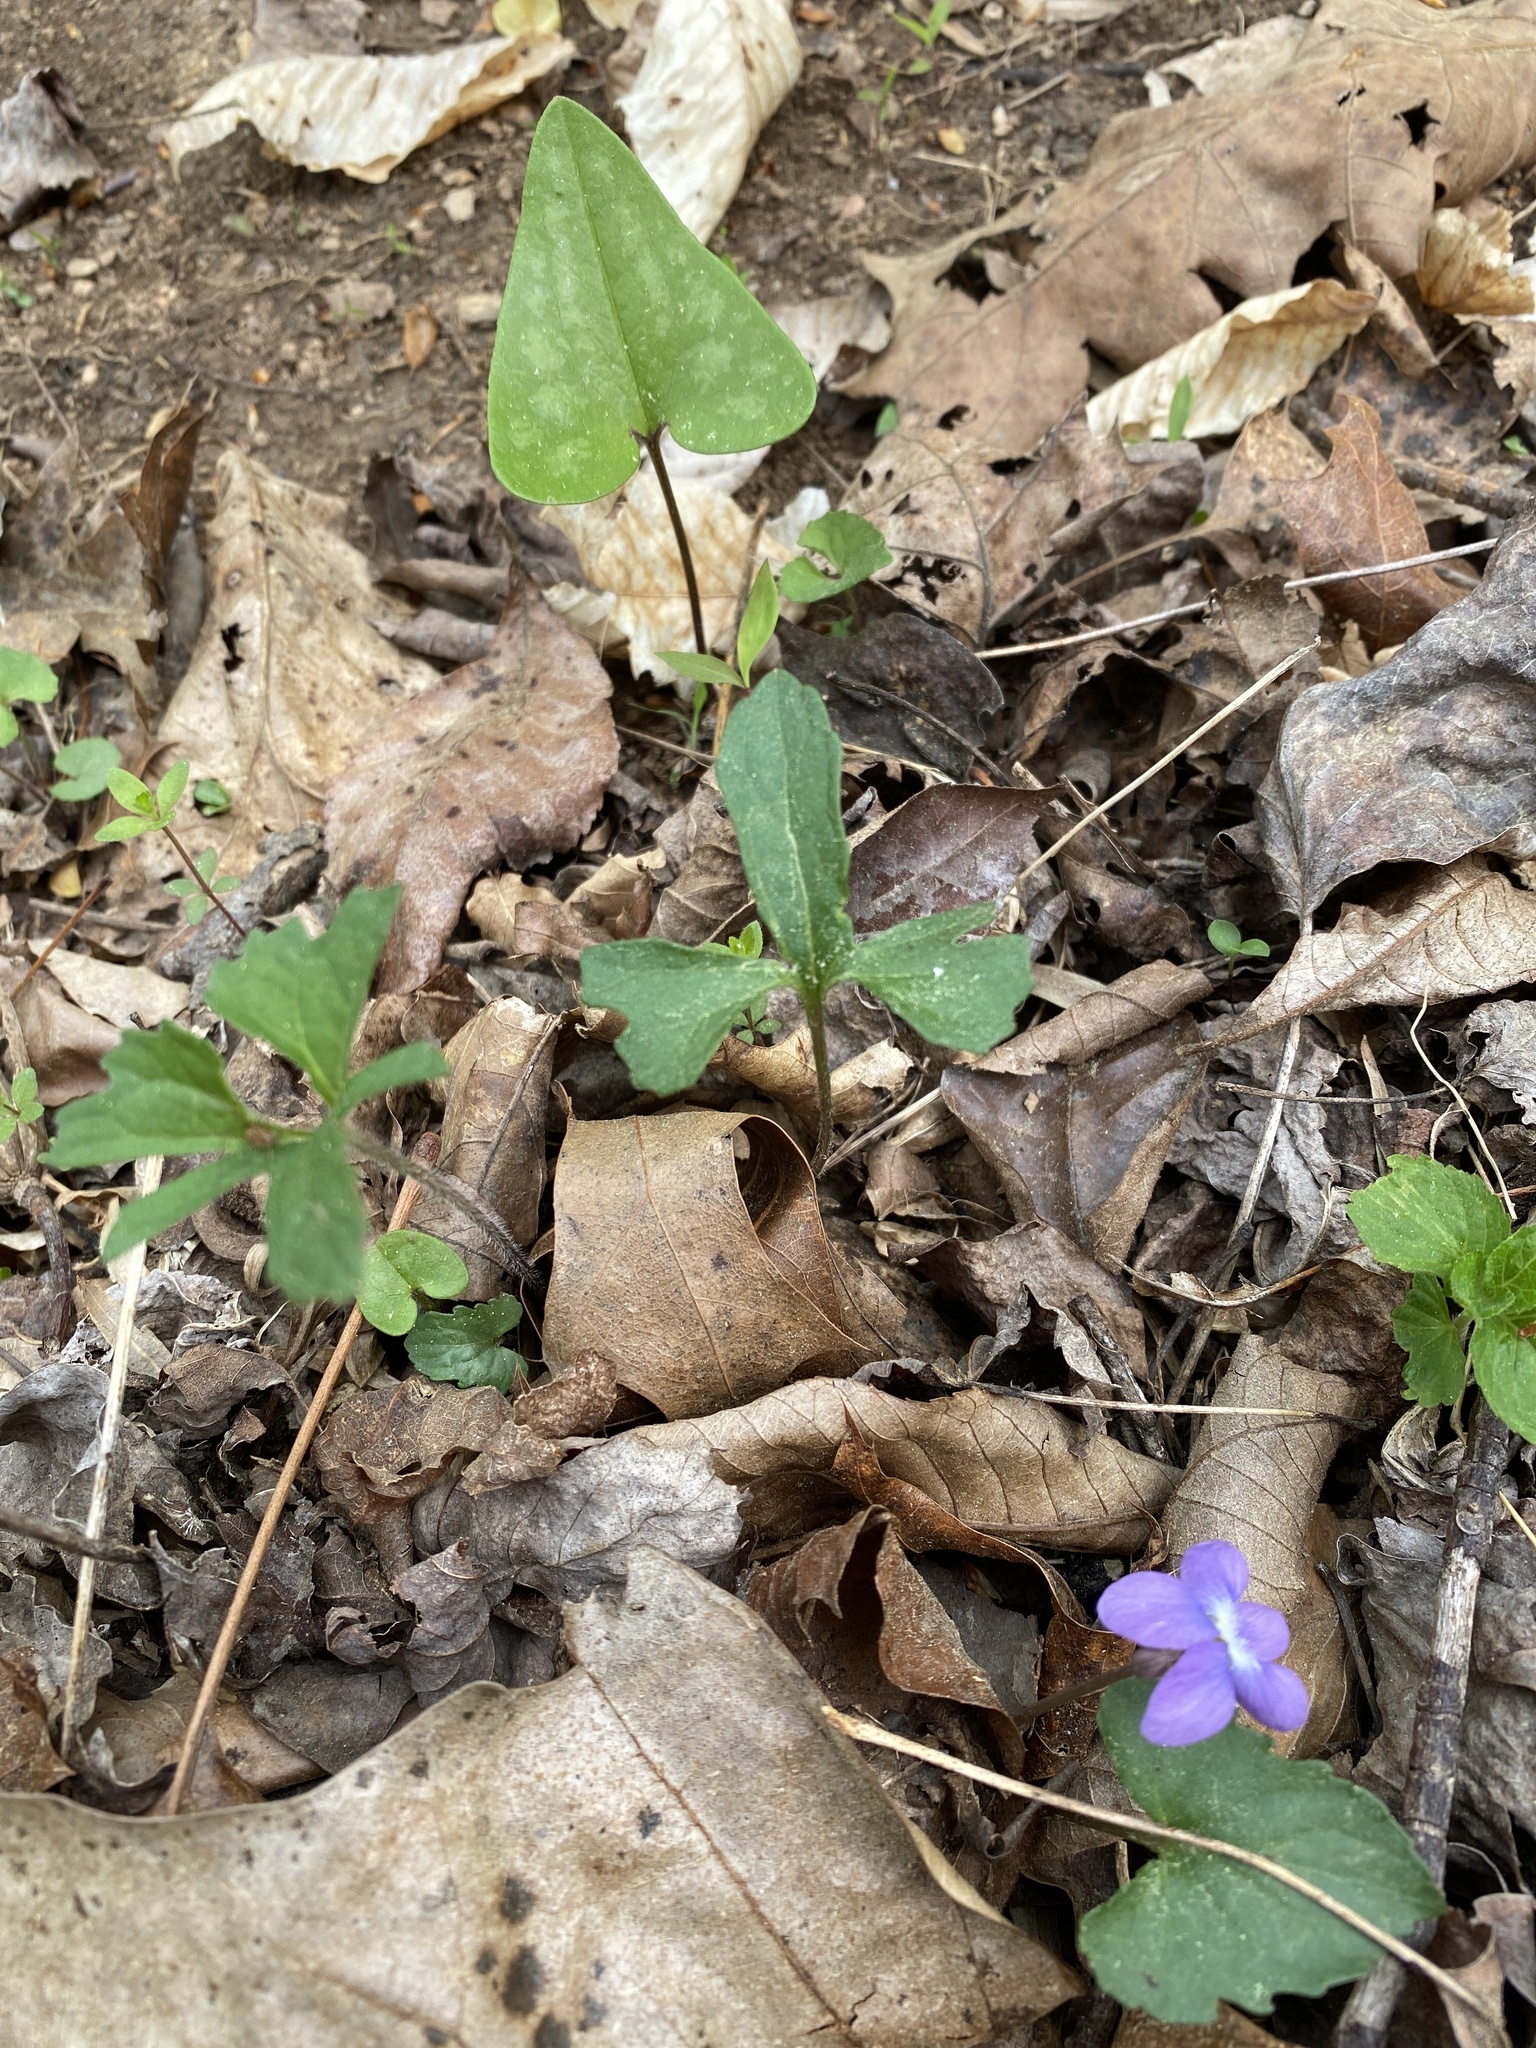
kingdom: Plantae
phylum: Tracheophyta
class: Magnoliopsida
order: Malpighiales
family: Violaceae
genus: Viola
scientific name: Viola palmata
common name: Early blue violet
